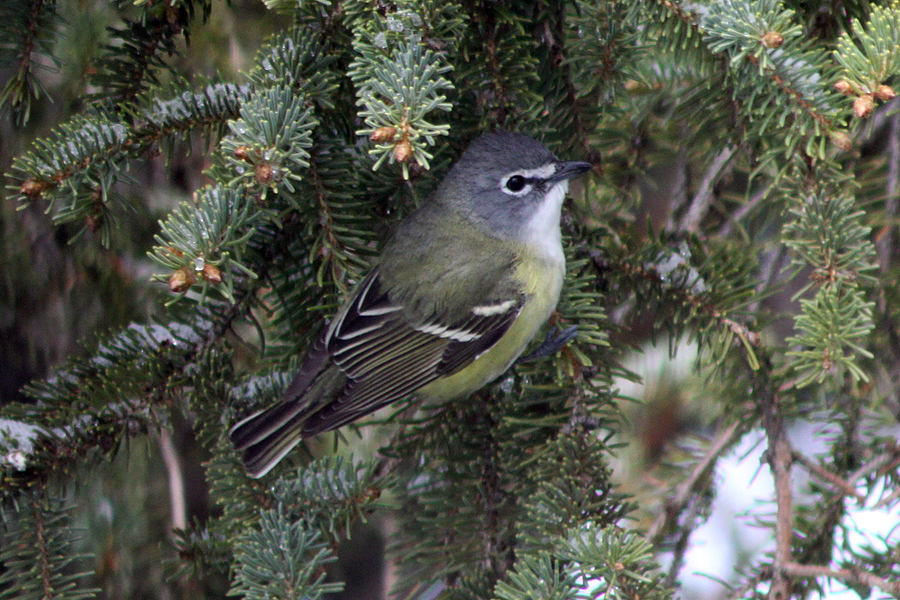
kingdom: Animalia
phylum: Chordata
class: Aves
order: Passeriformes
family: Vireonidae
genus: Vireo
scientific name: Vireo solitarius
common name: Blue-headed vireo
